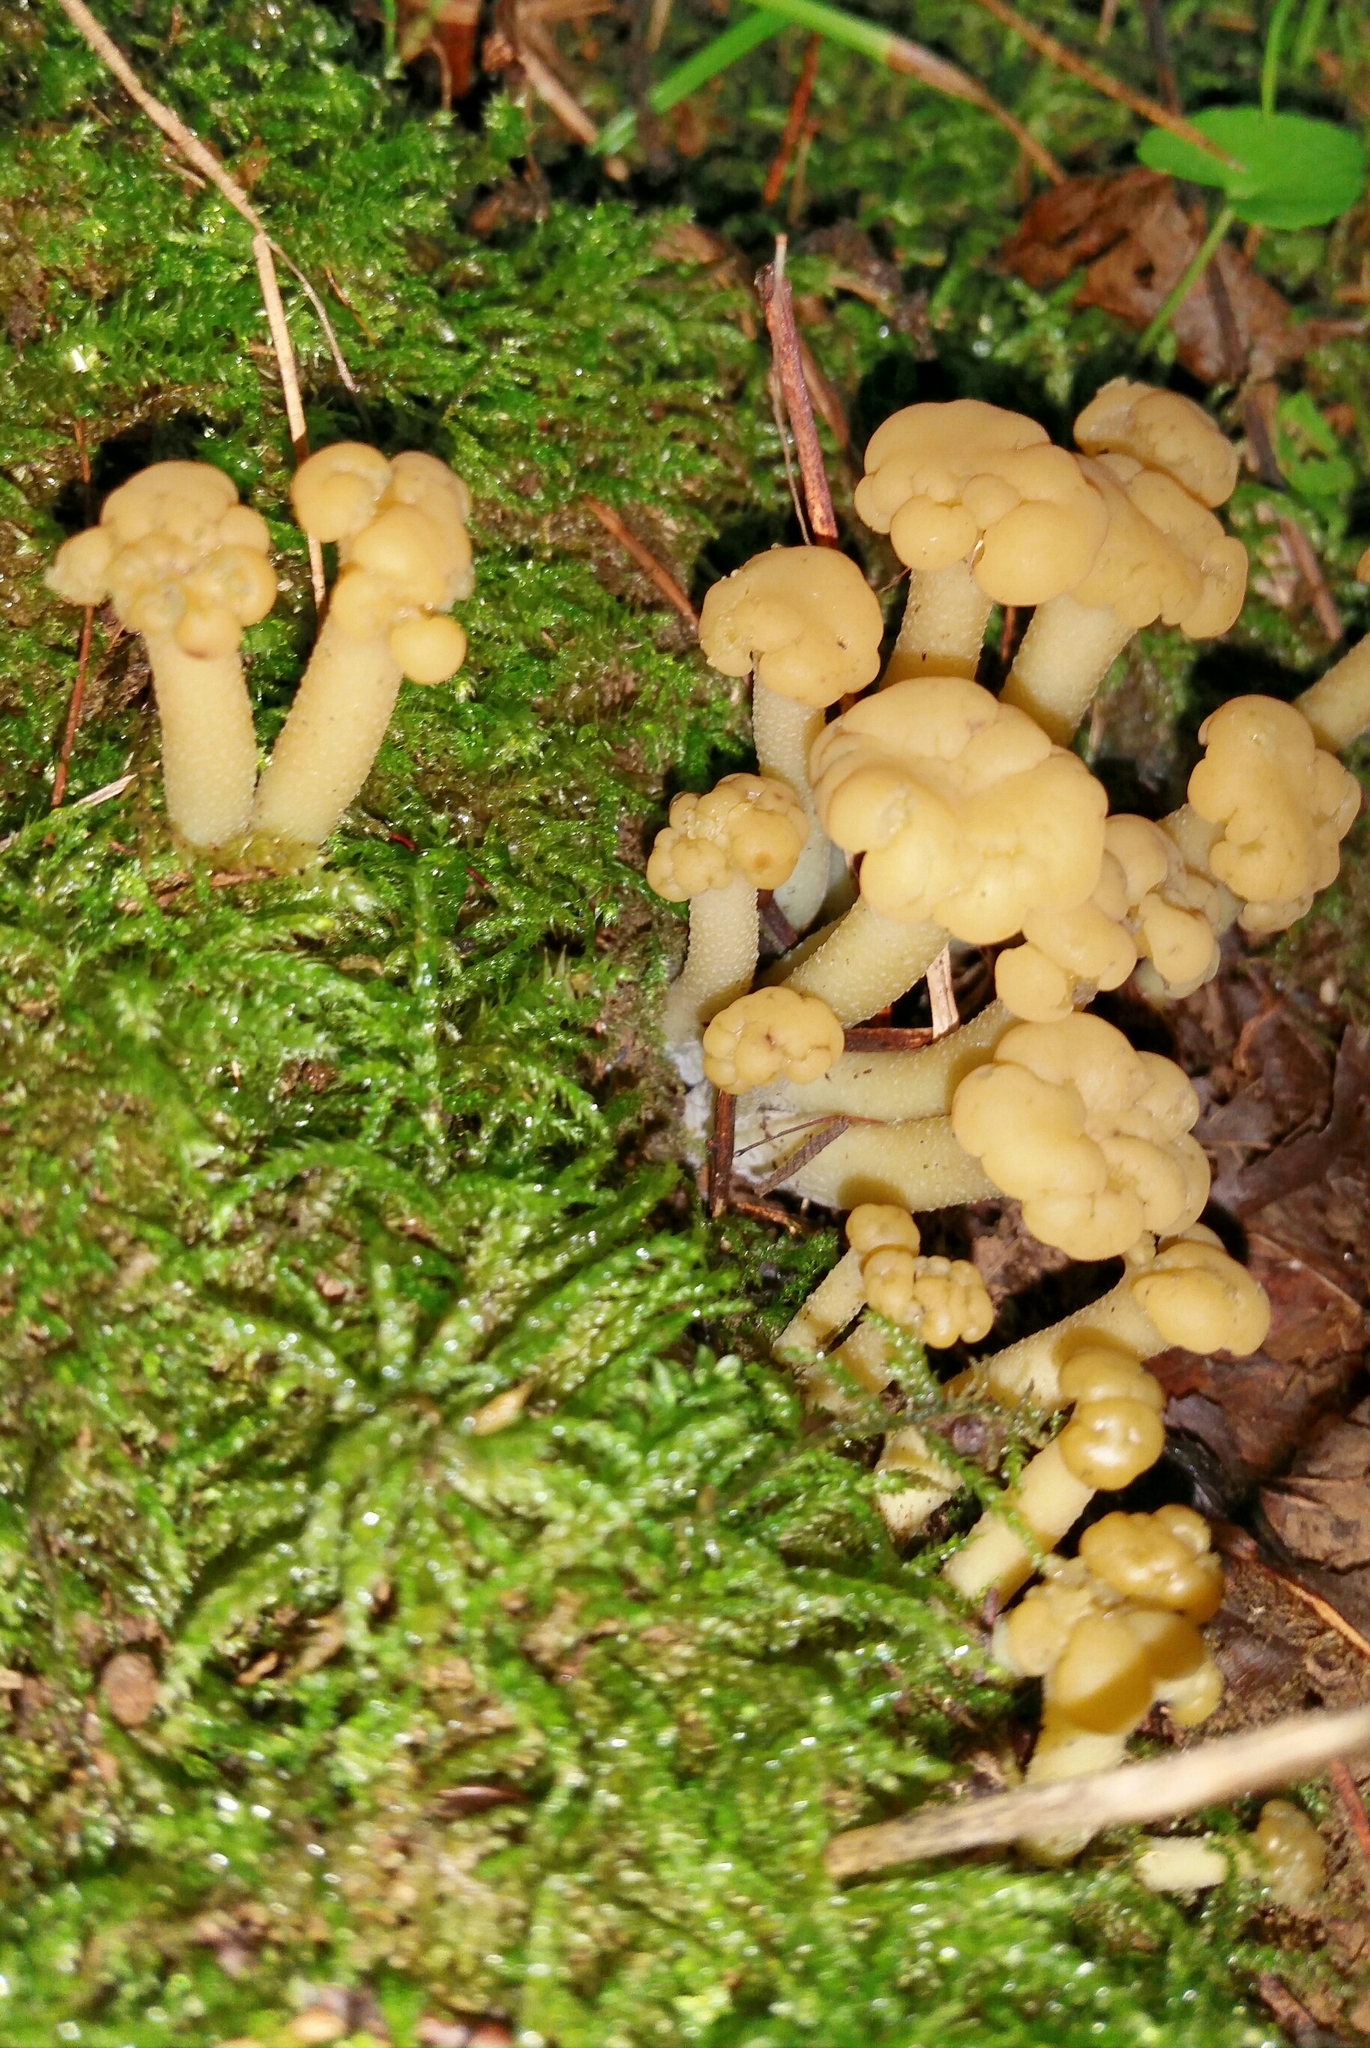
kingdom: Fungi
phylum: Ascomycota
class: Leotiomycetes
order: Leotiales
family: Leotiaceae
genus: Leotia
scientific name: Leotia lubrica
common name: Jellybaby
